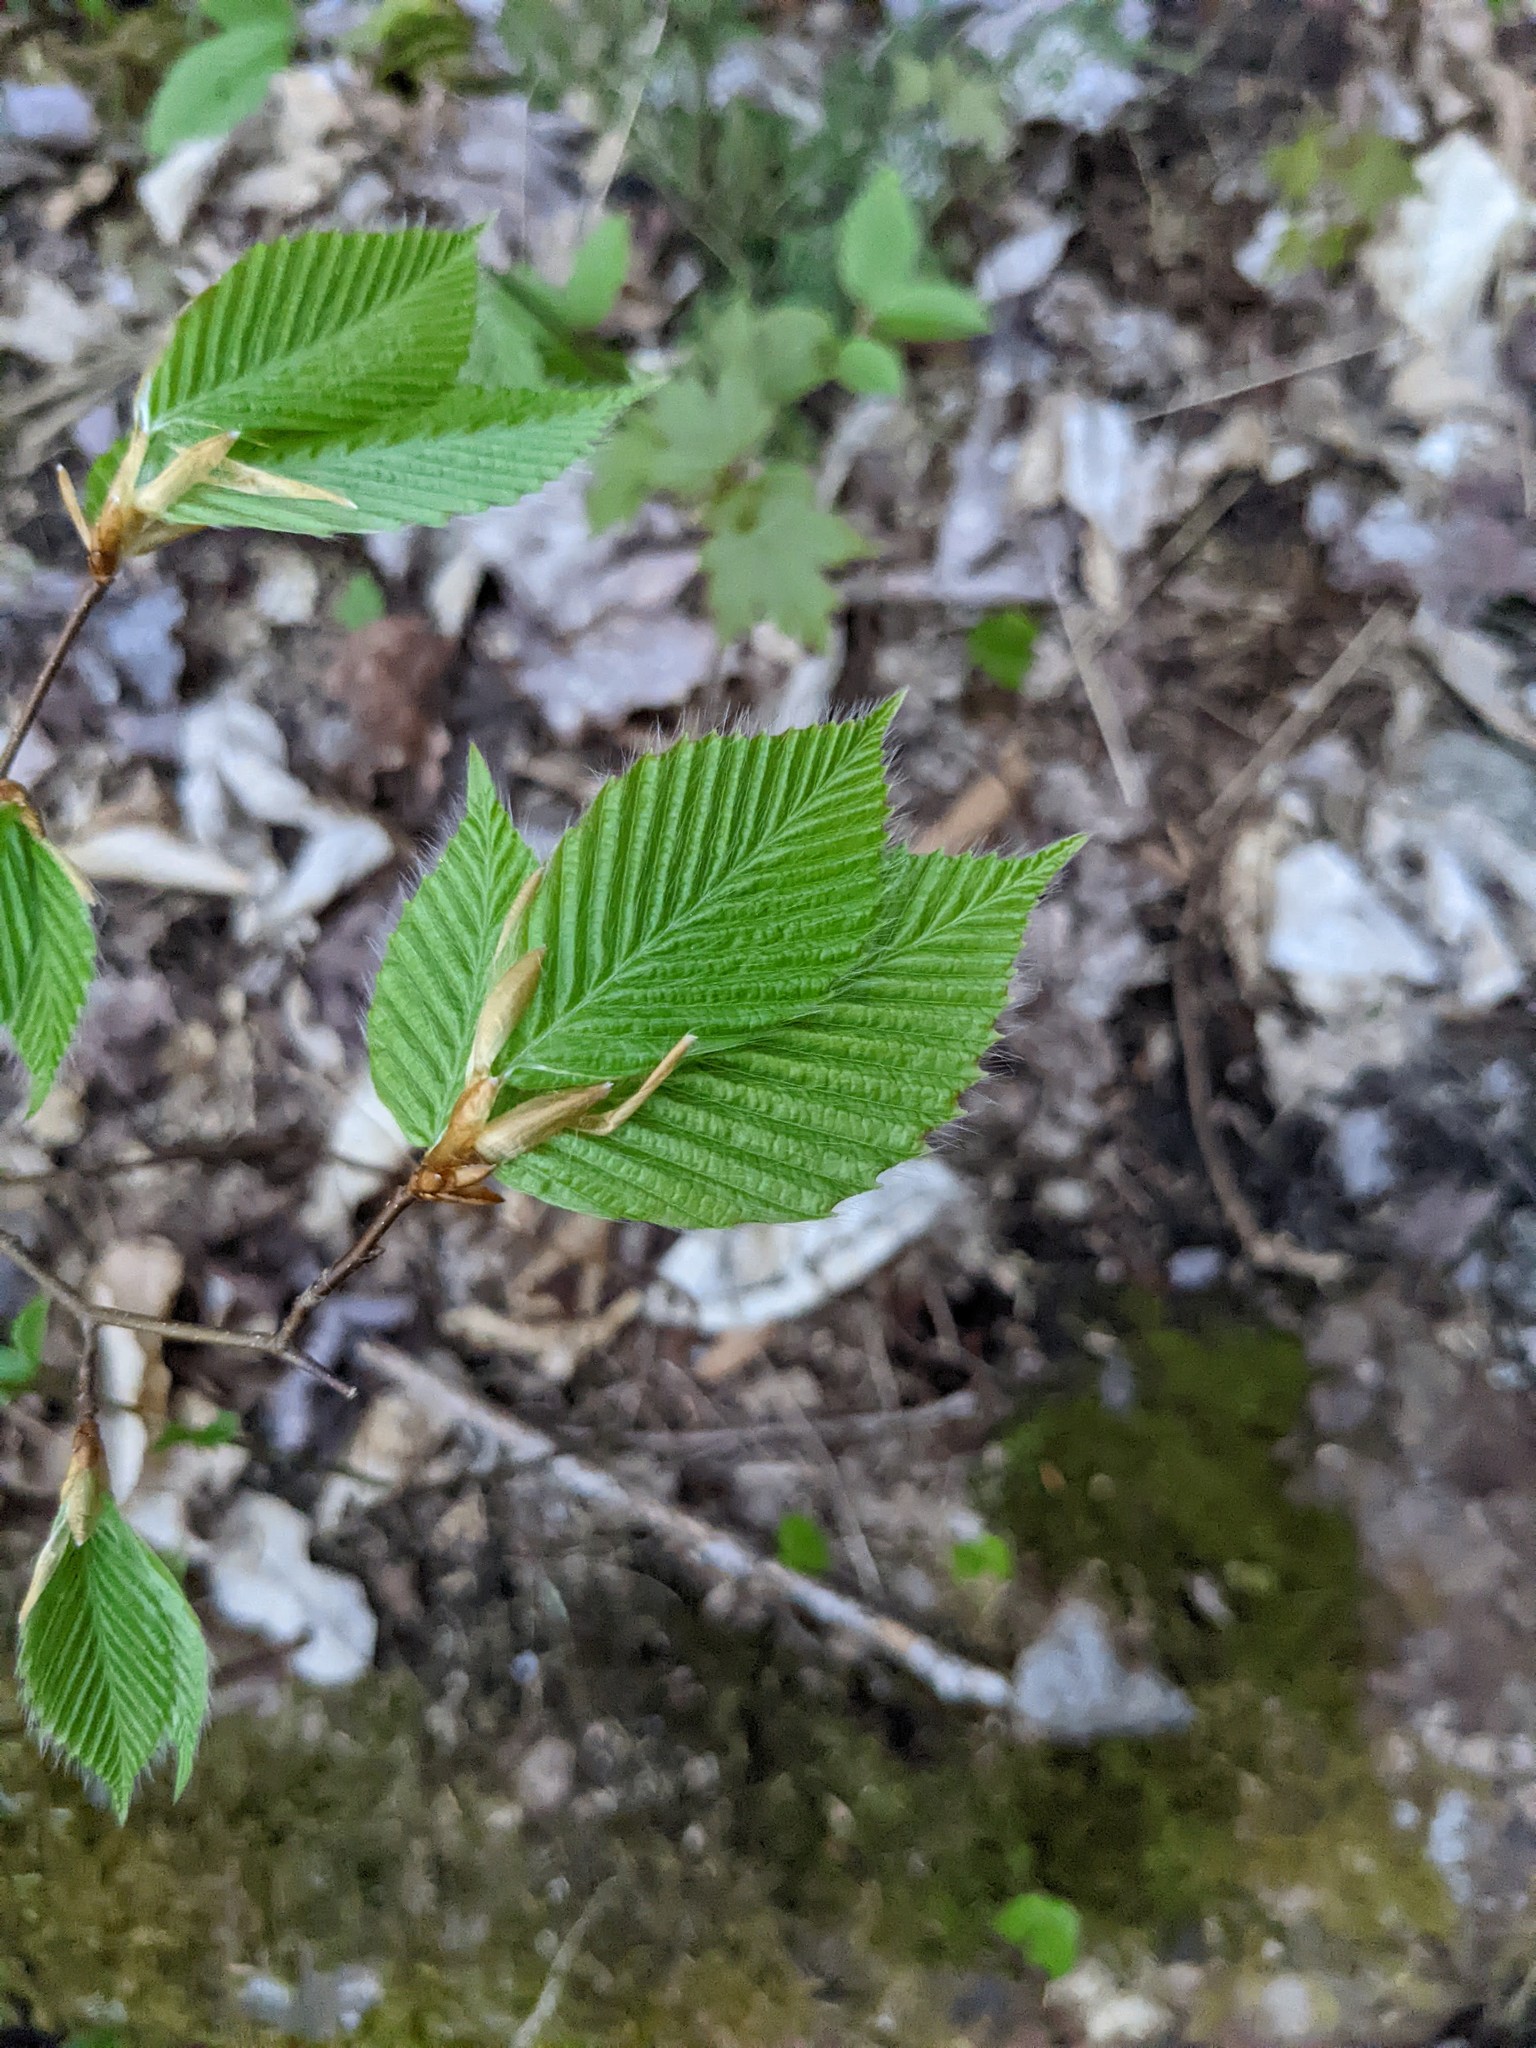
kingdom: Plantae
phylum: Tracheophyta
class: Magnoliopsida
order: Fagales
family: Fagaceae
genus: Fagus
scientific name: Fagus grandifolia
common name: American beech
